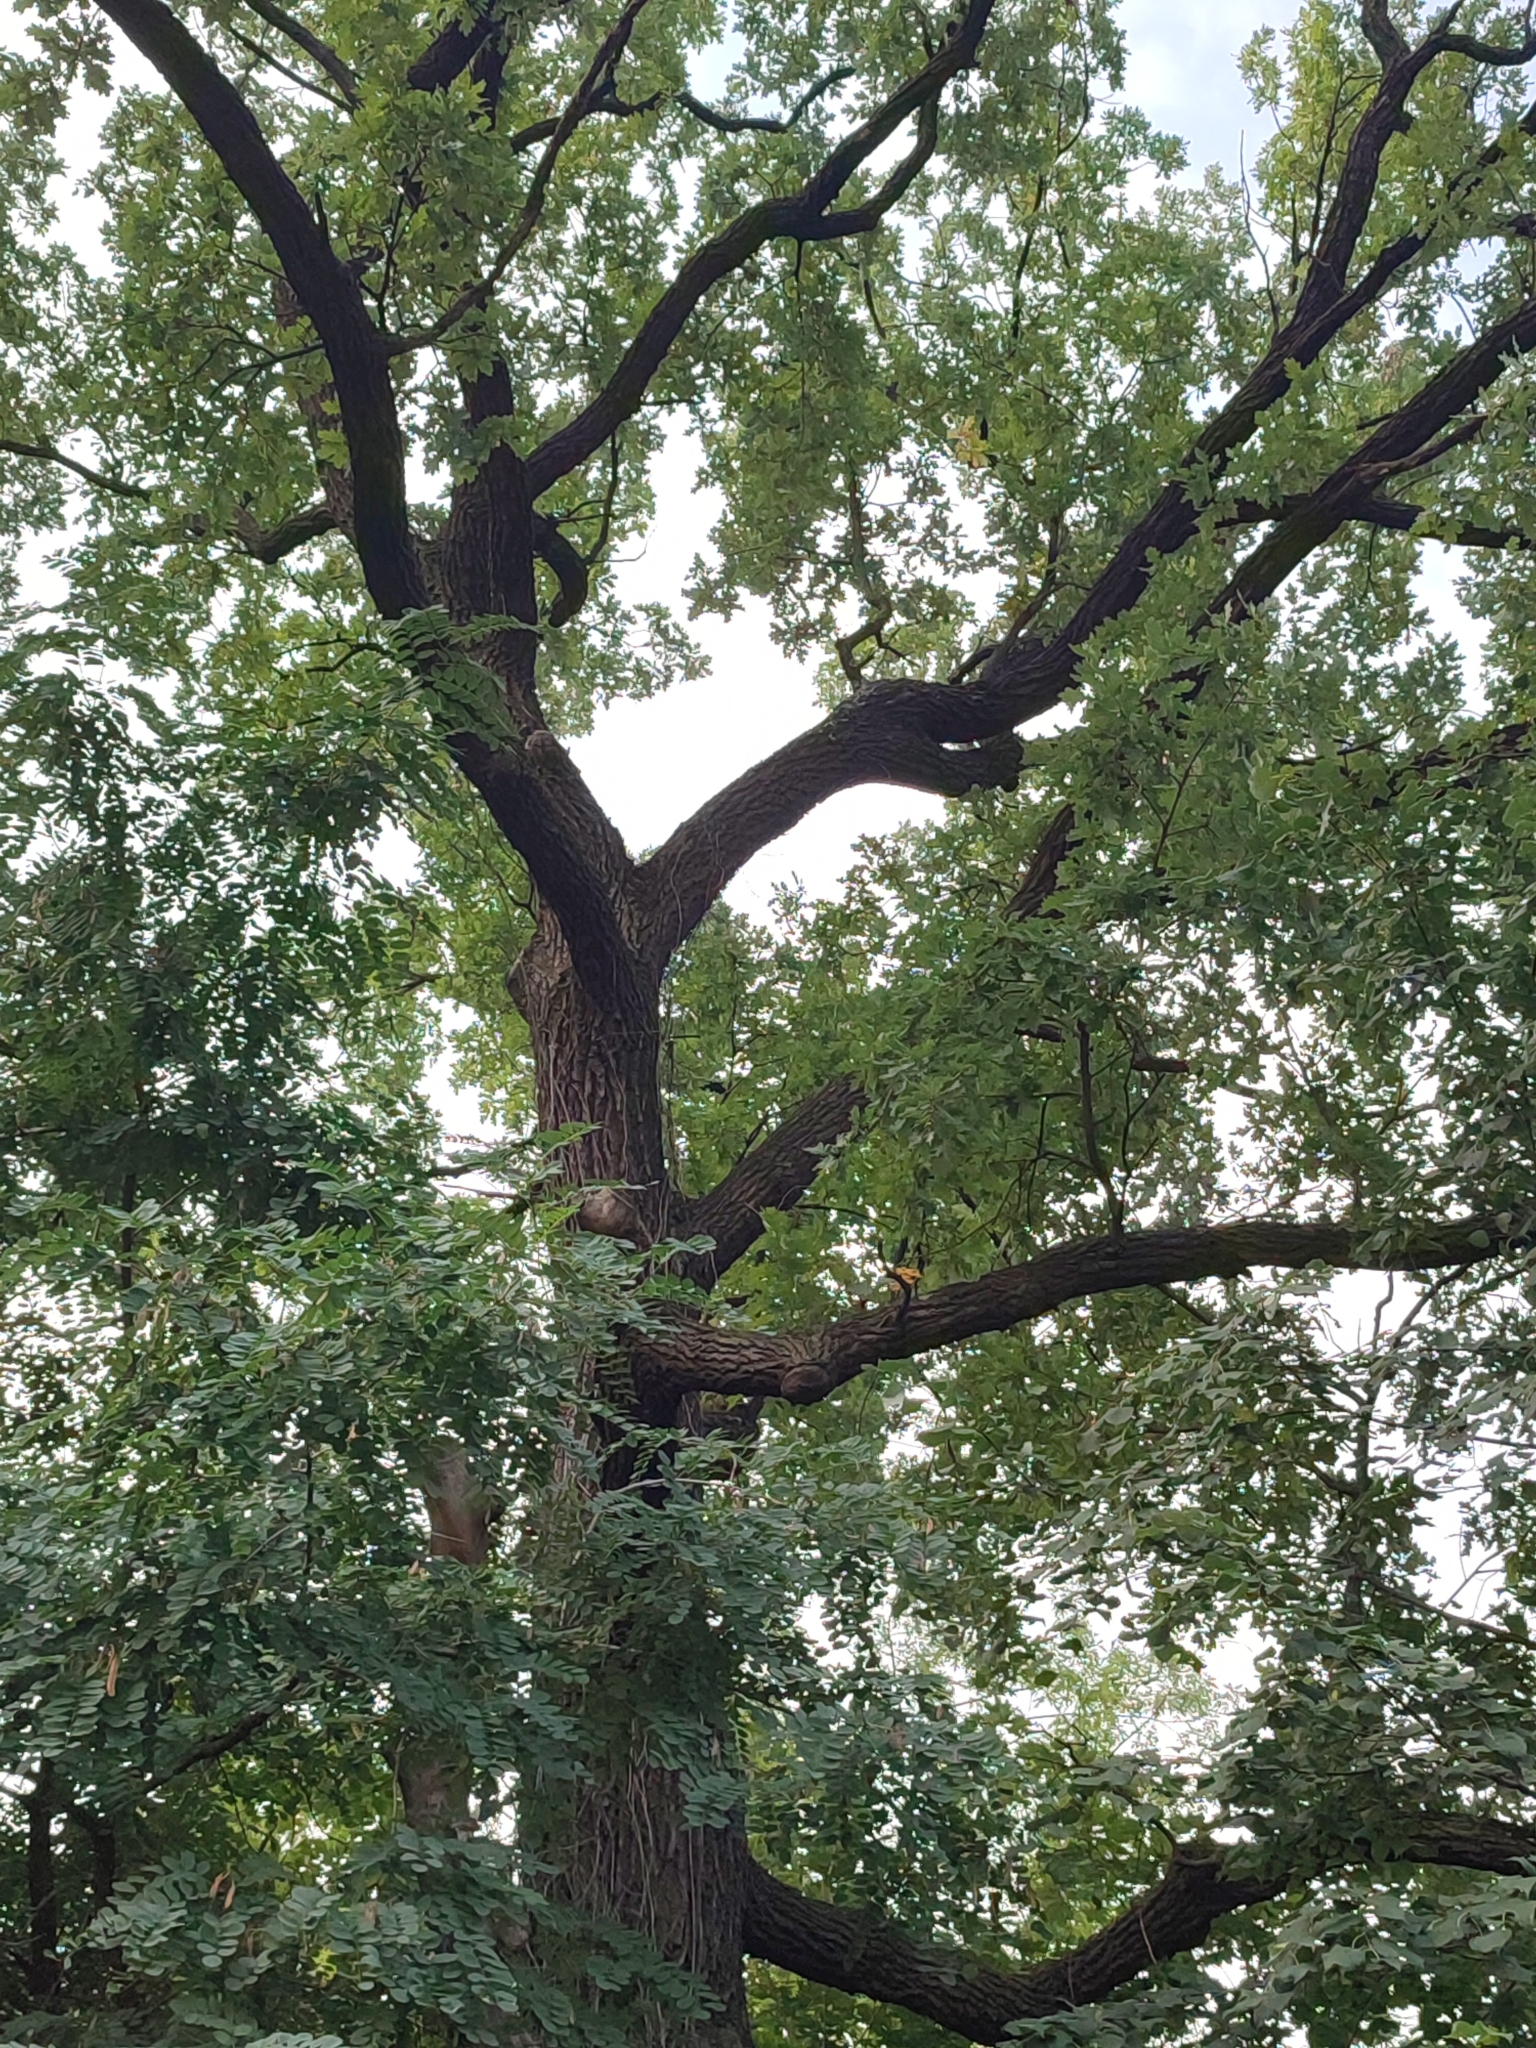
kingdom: Plantae
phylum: Tracheophyta
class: Magnoliopsida
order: Fagales
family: Fagaceae
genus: Quercus
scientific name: Quercus robur
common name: Pedunculate oak
